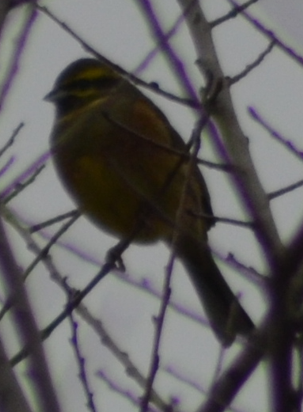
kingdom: Animalia
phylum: Chordata
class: Aves
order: Passeriformes
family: Emberizidae
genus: Emberiza
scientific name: Emberiza cirlus
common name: Cirl bunting
